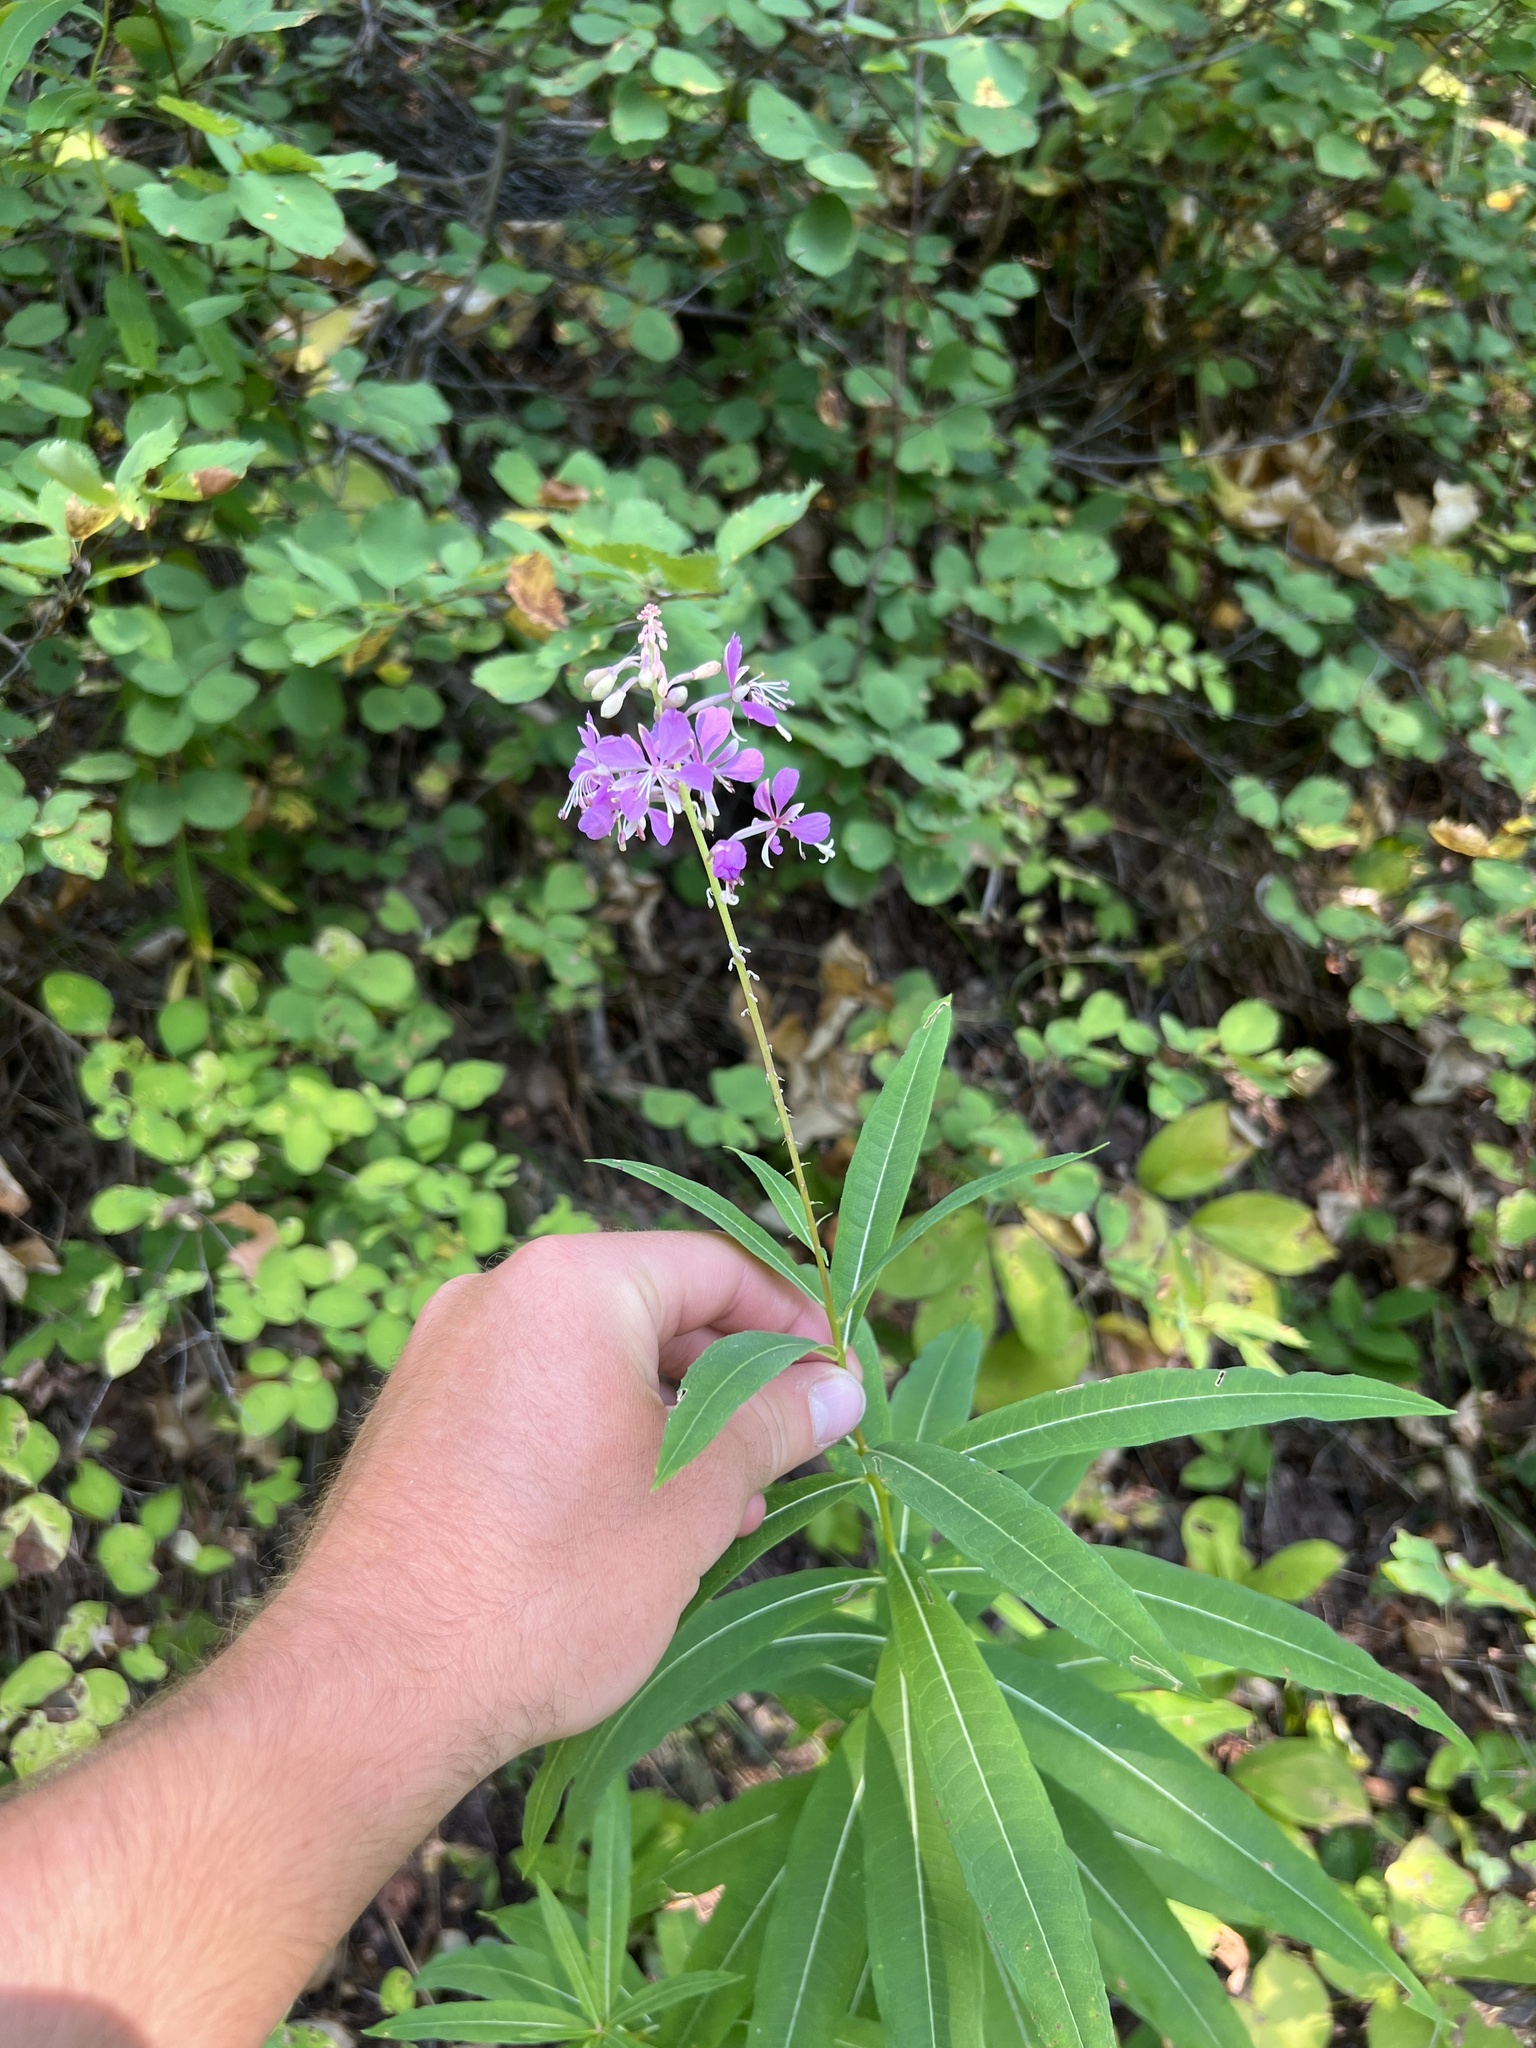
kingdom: Plantae
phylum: Tracheophyta
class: Magnoliopsida
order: Myrtales
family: Onagraceae
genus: Chamaenerion
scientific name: Chamaenerion angustifolium
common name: Fireweed
